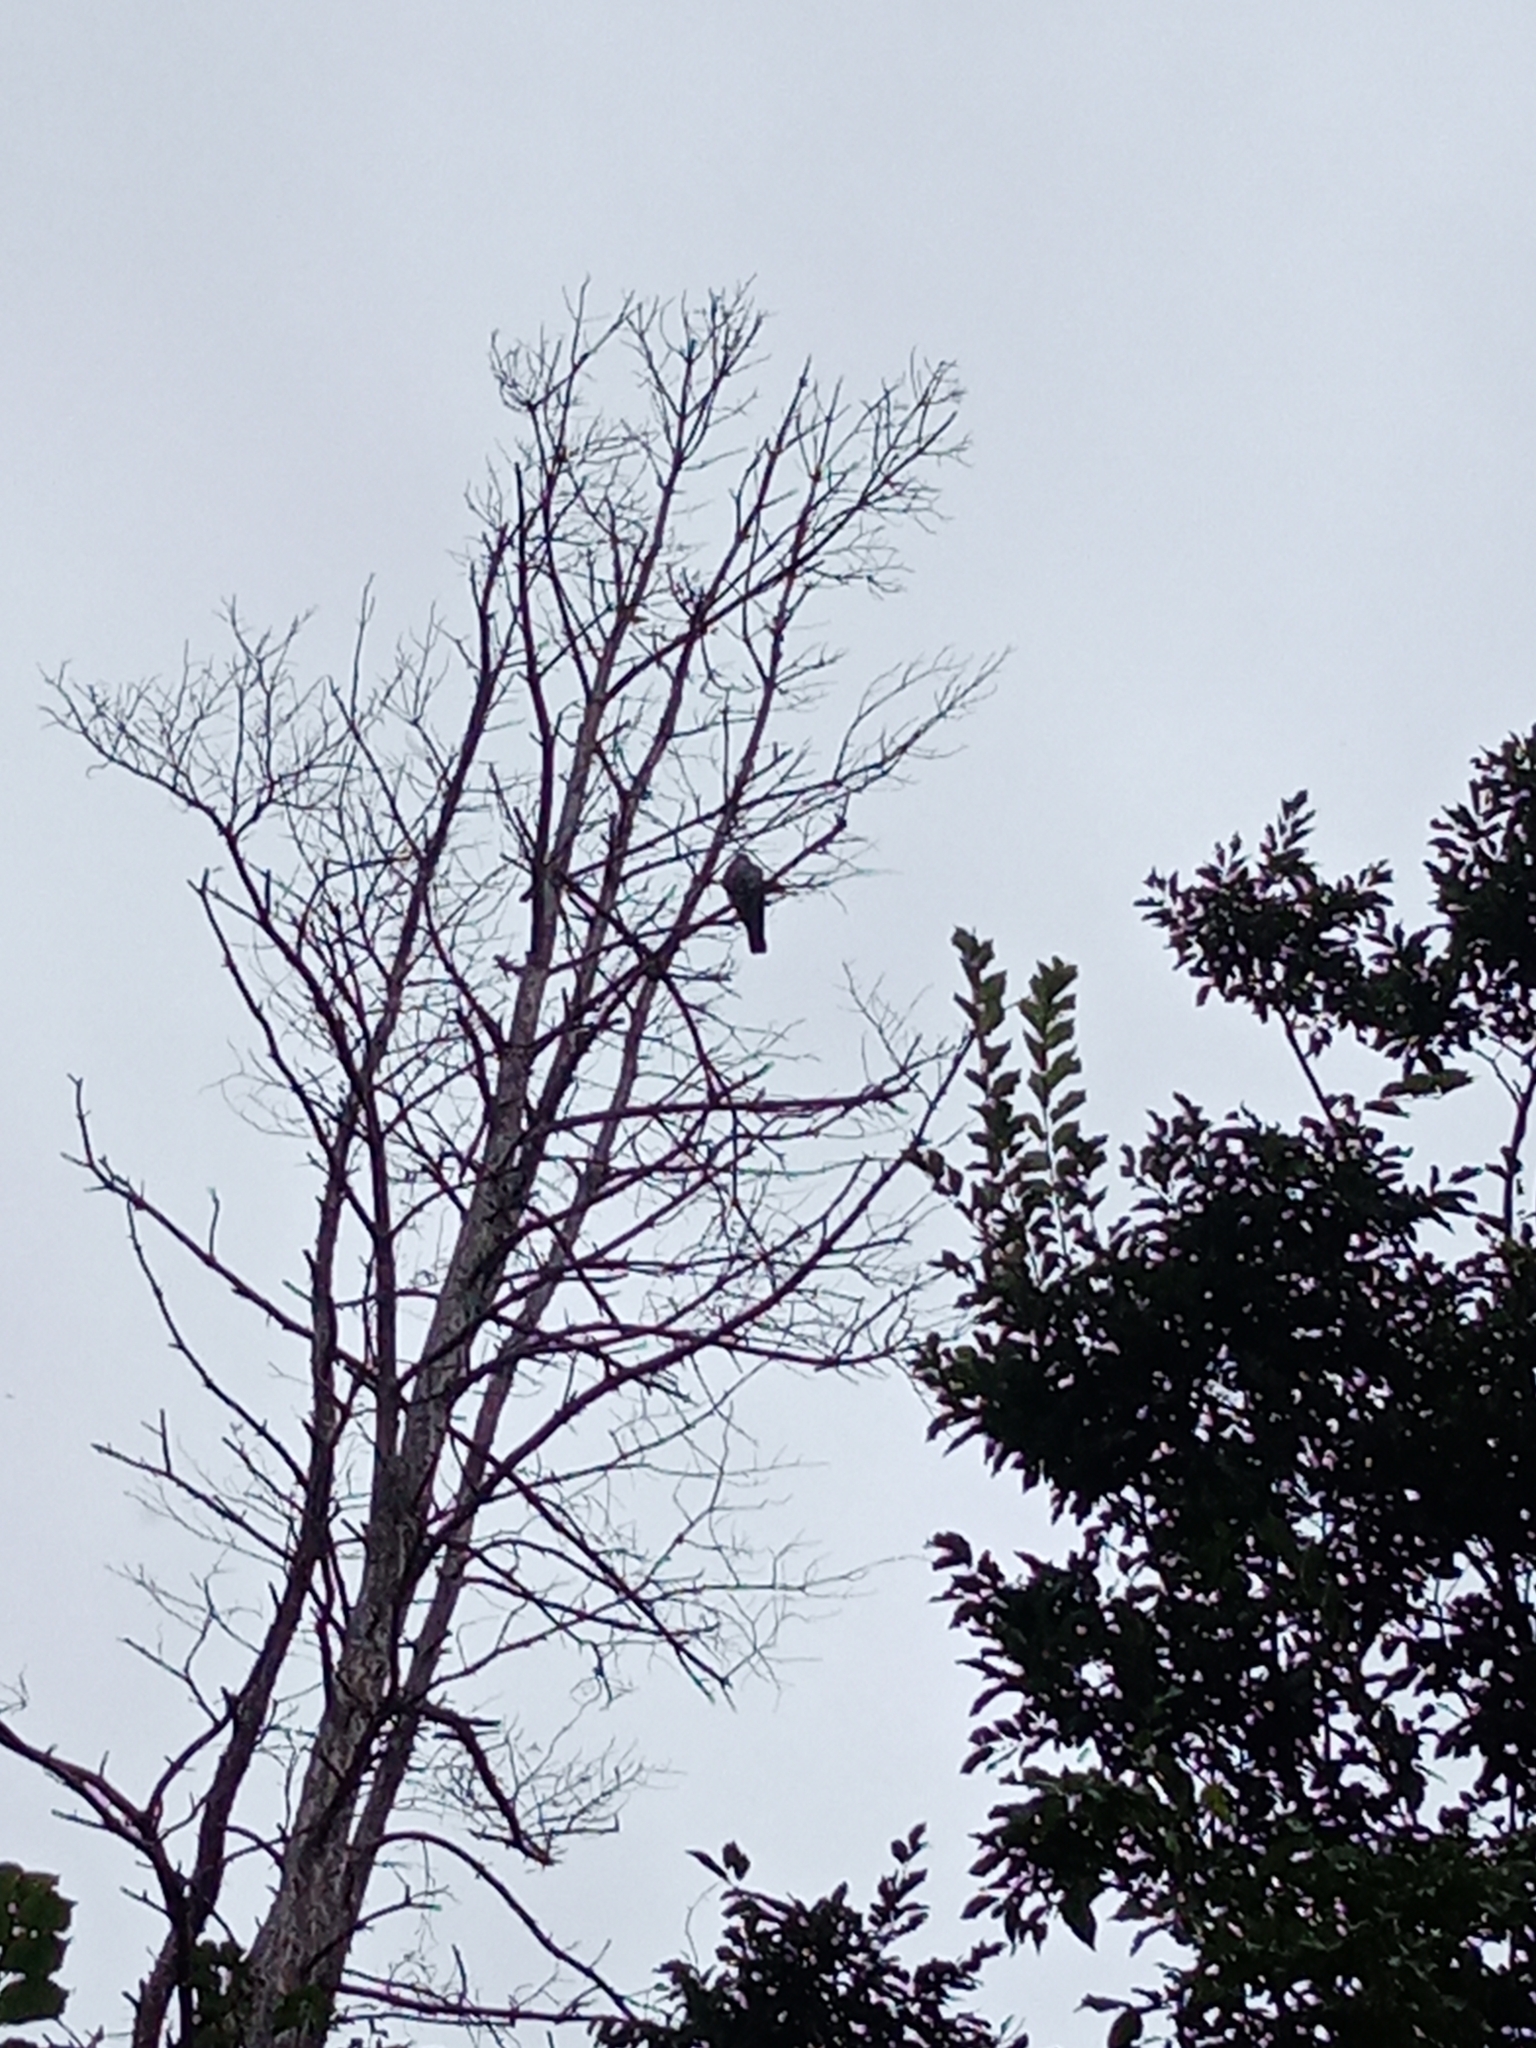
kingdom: Animalia
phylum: Chordata
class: Aves
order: Columbiformes
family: Columbidae
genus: Columba
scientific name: Columba palumbus
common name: Common wood pigeon
